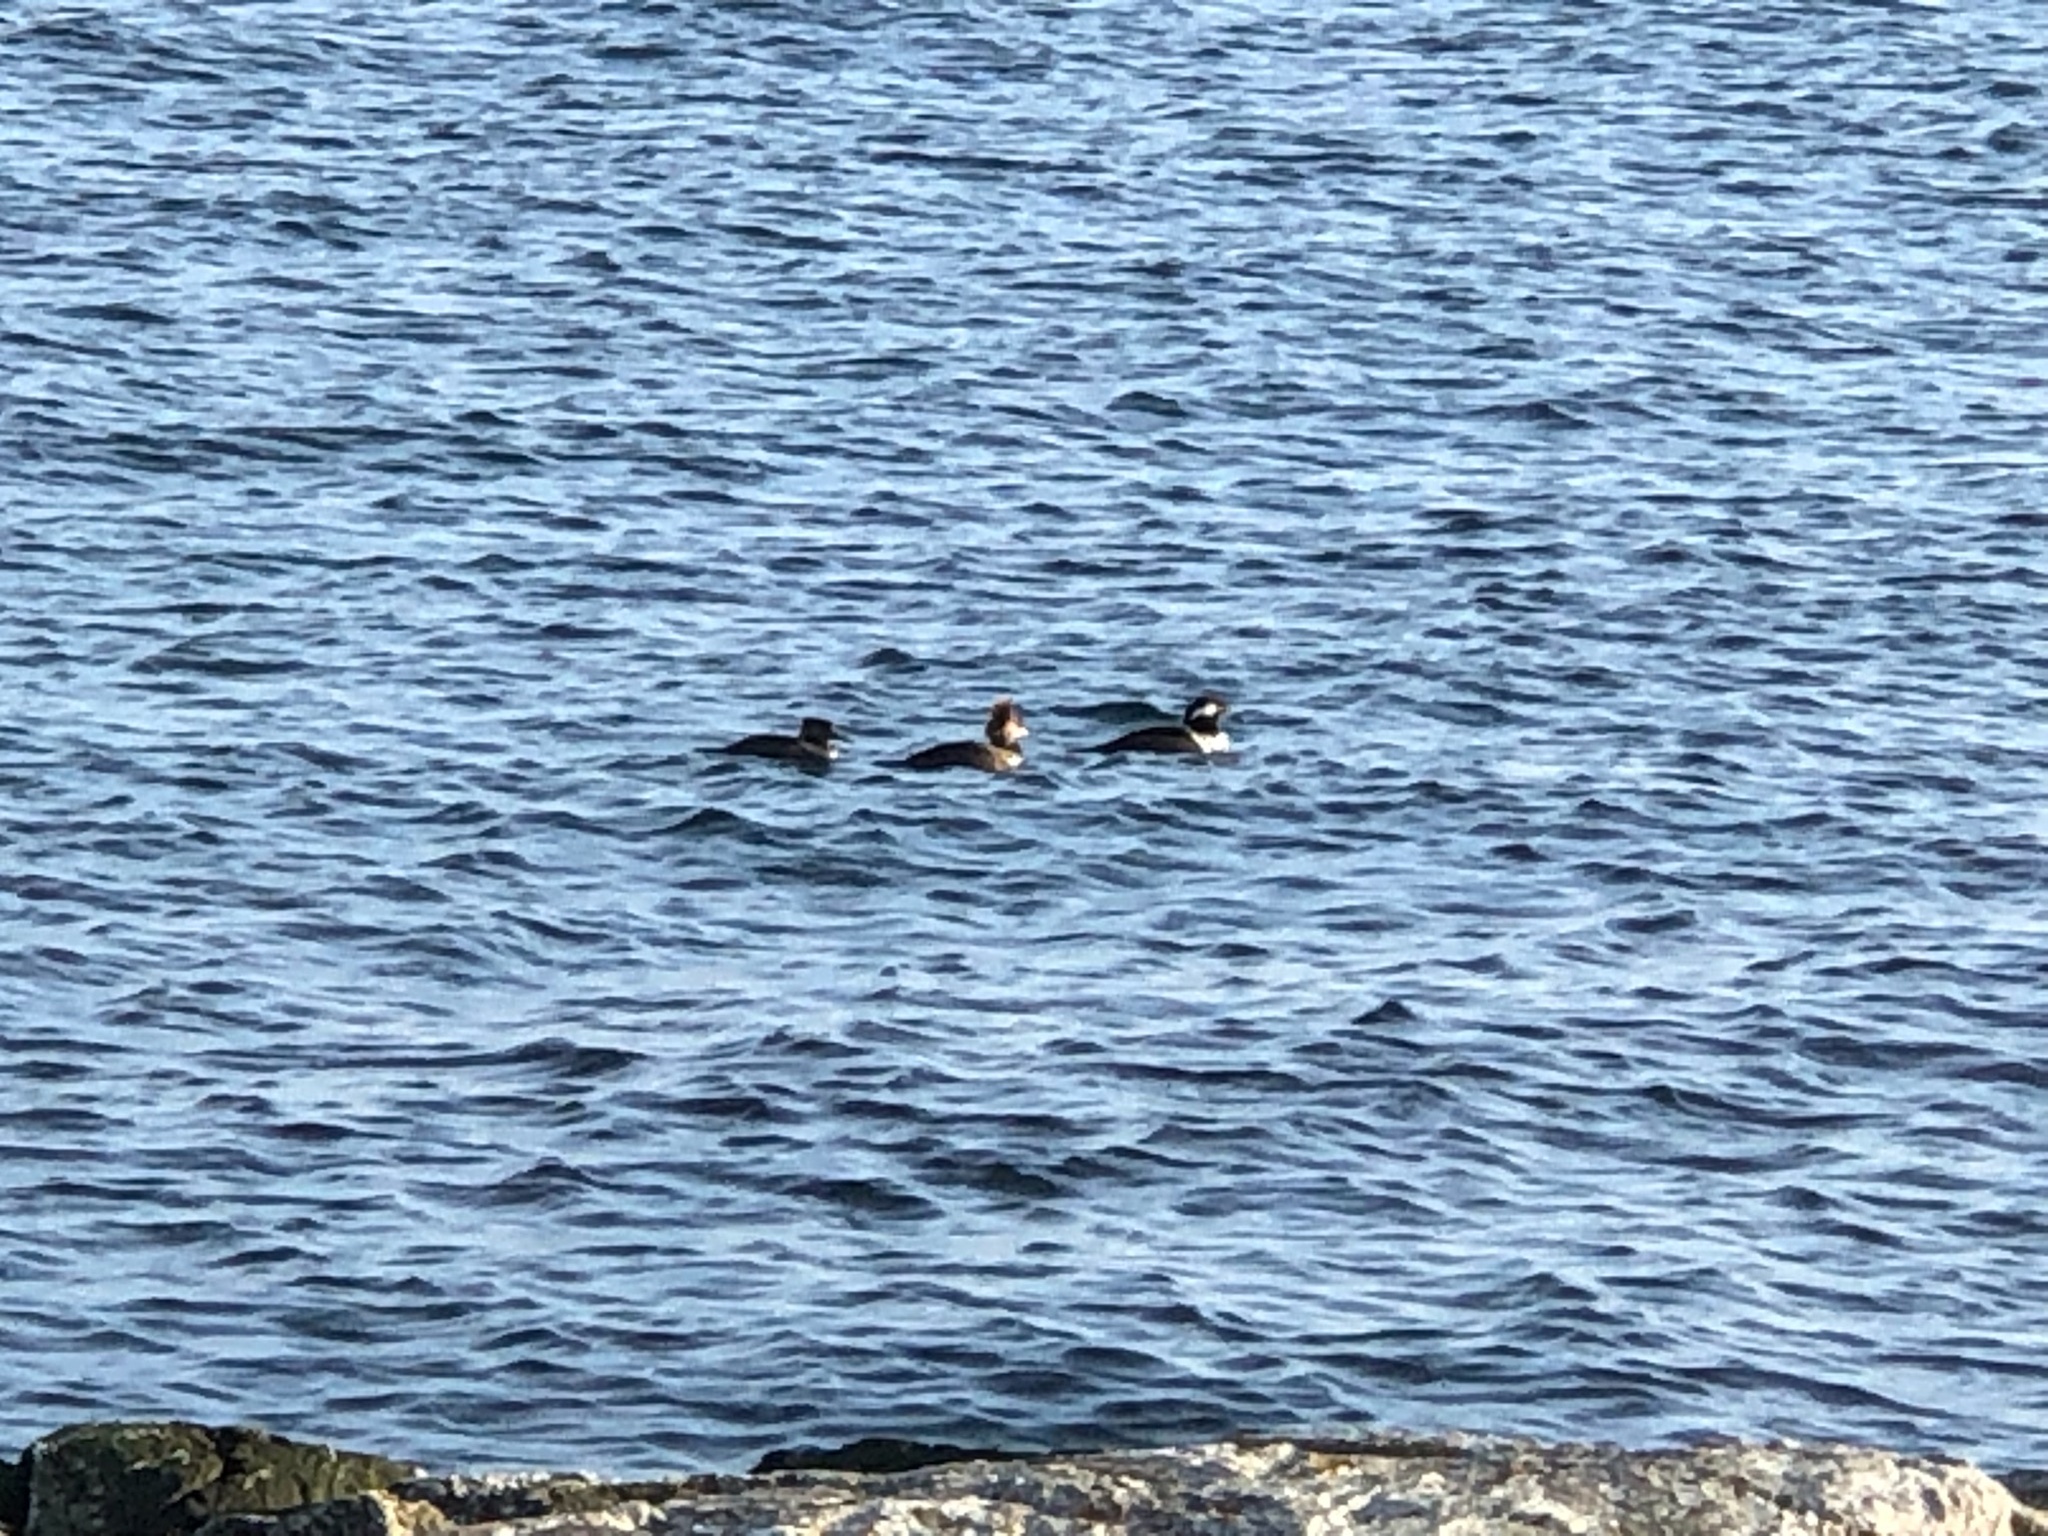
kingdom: Animalia
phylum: Chordata
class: Aves
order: Anseriformes
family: Anatidae
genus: Lophodytes
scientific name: Lophodytes cucullatus
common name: Hooded merganser
